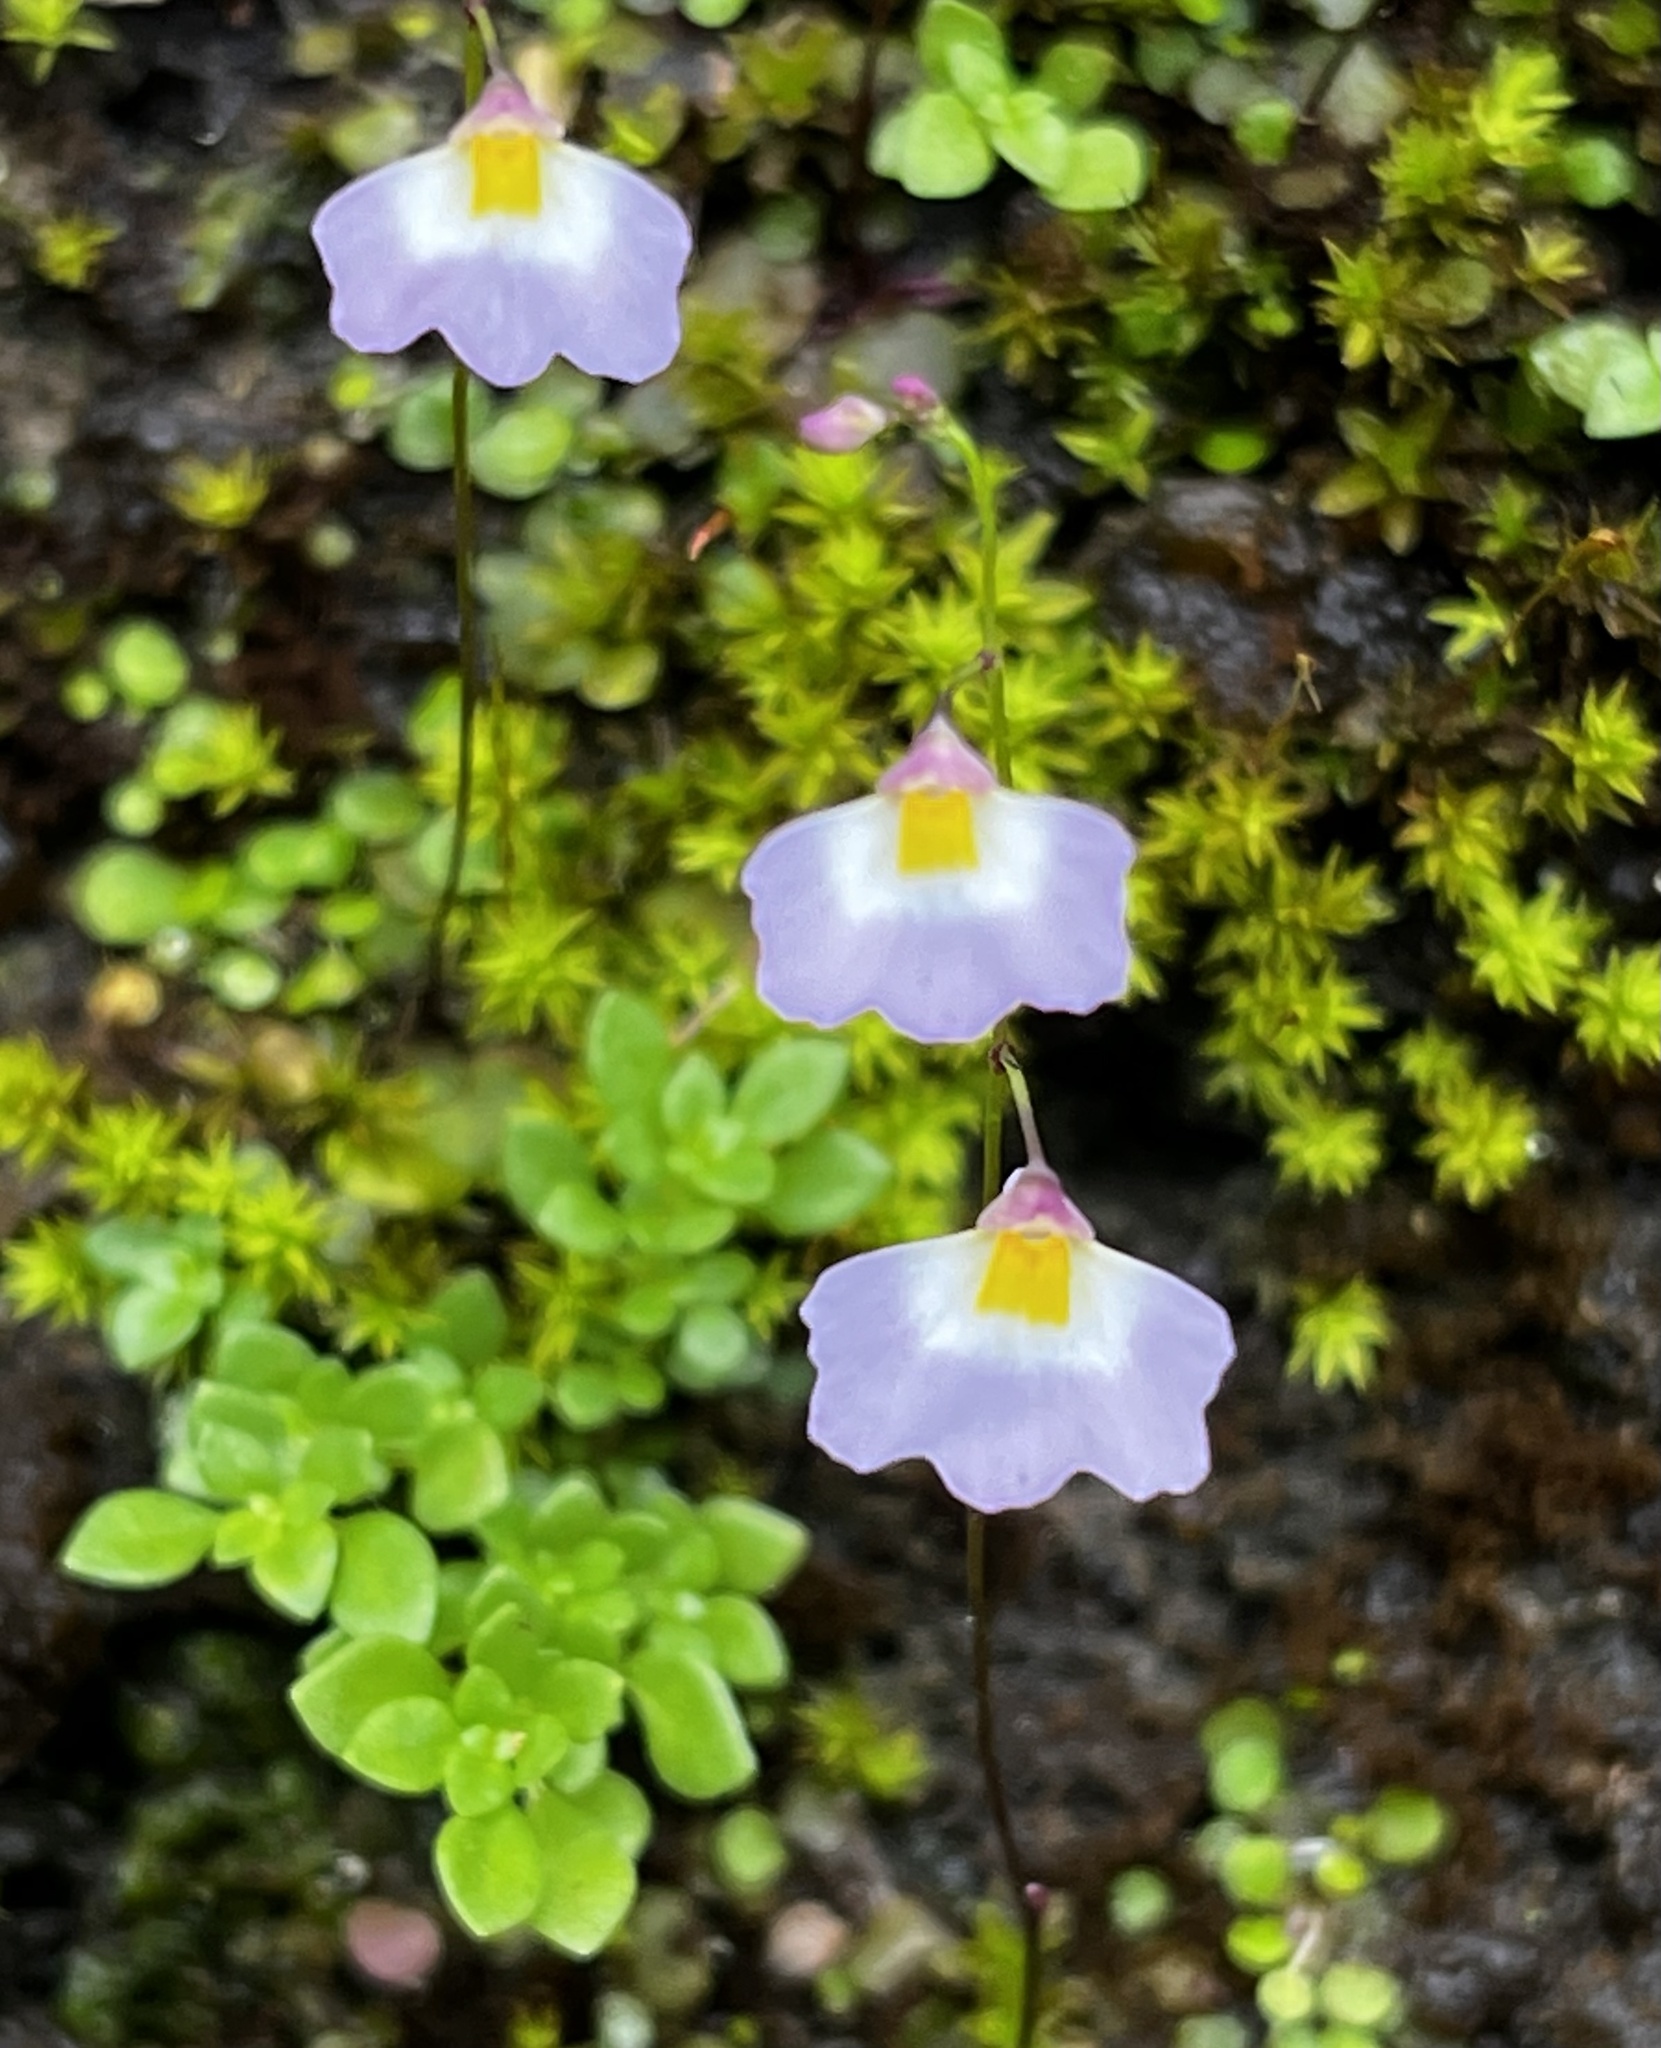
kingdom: Plantae
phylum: Tracheophyta
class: Magnoliopsida
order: Lamiales
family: Lentibulariaceae
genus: Utricularia
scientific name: Utricularia striatula
